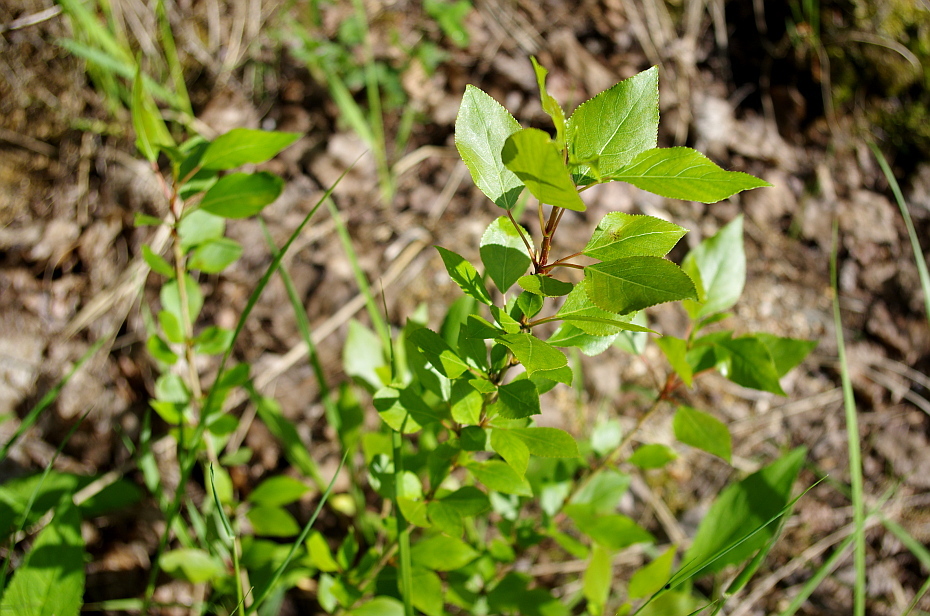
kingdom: Plantae
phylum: Tracheophyta
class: Magnoliopsida
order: Malpighiales
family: Salicaceae
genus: Populus
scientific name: Populus sibirica
